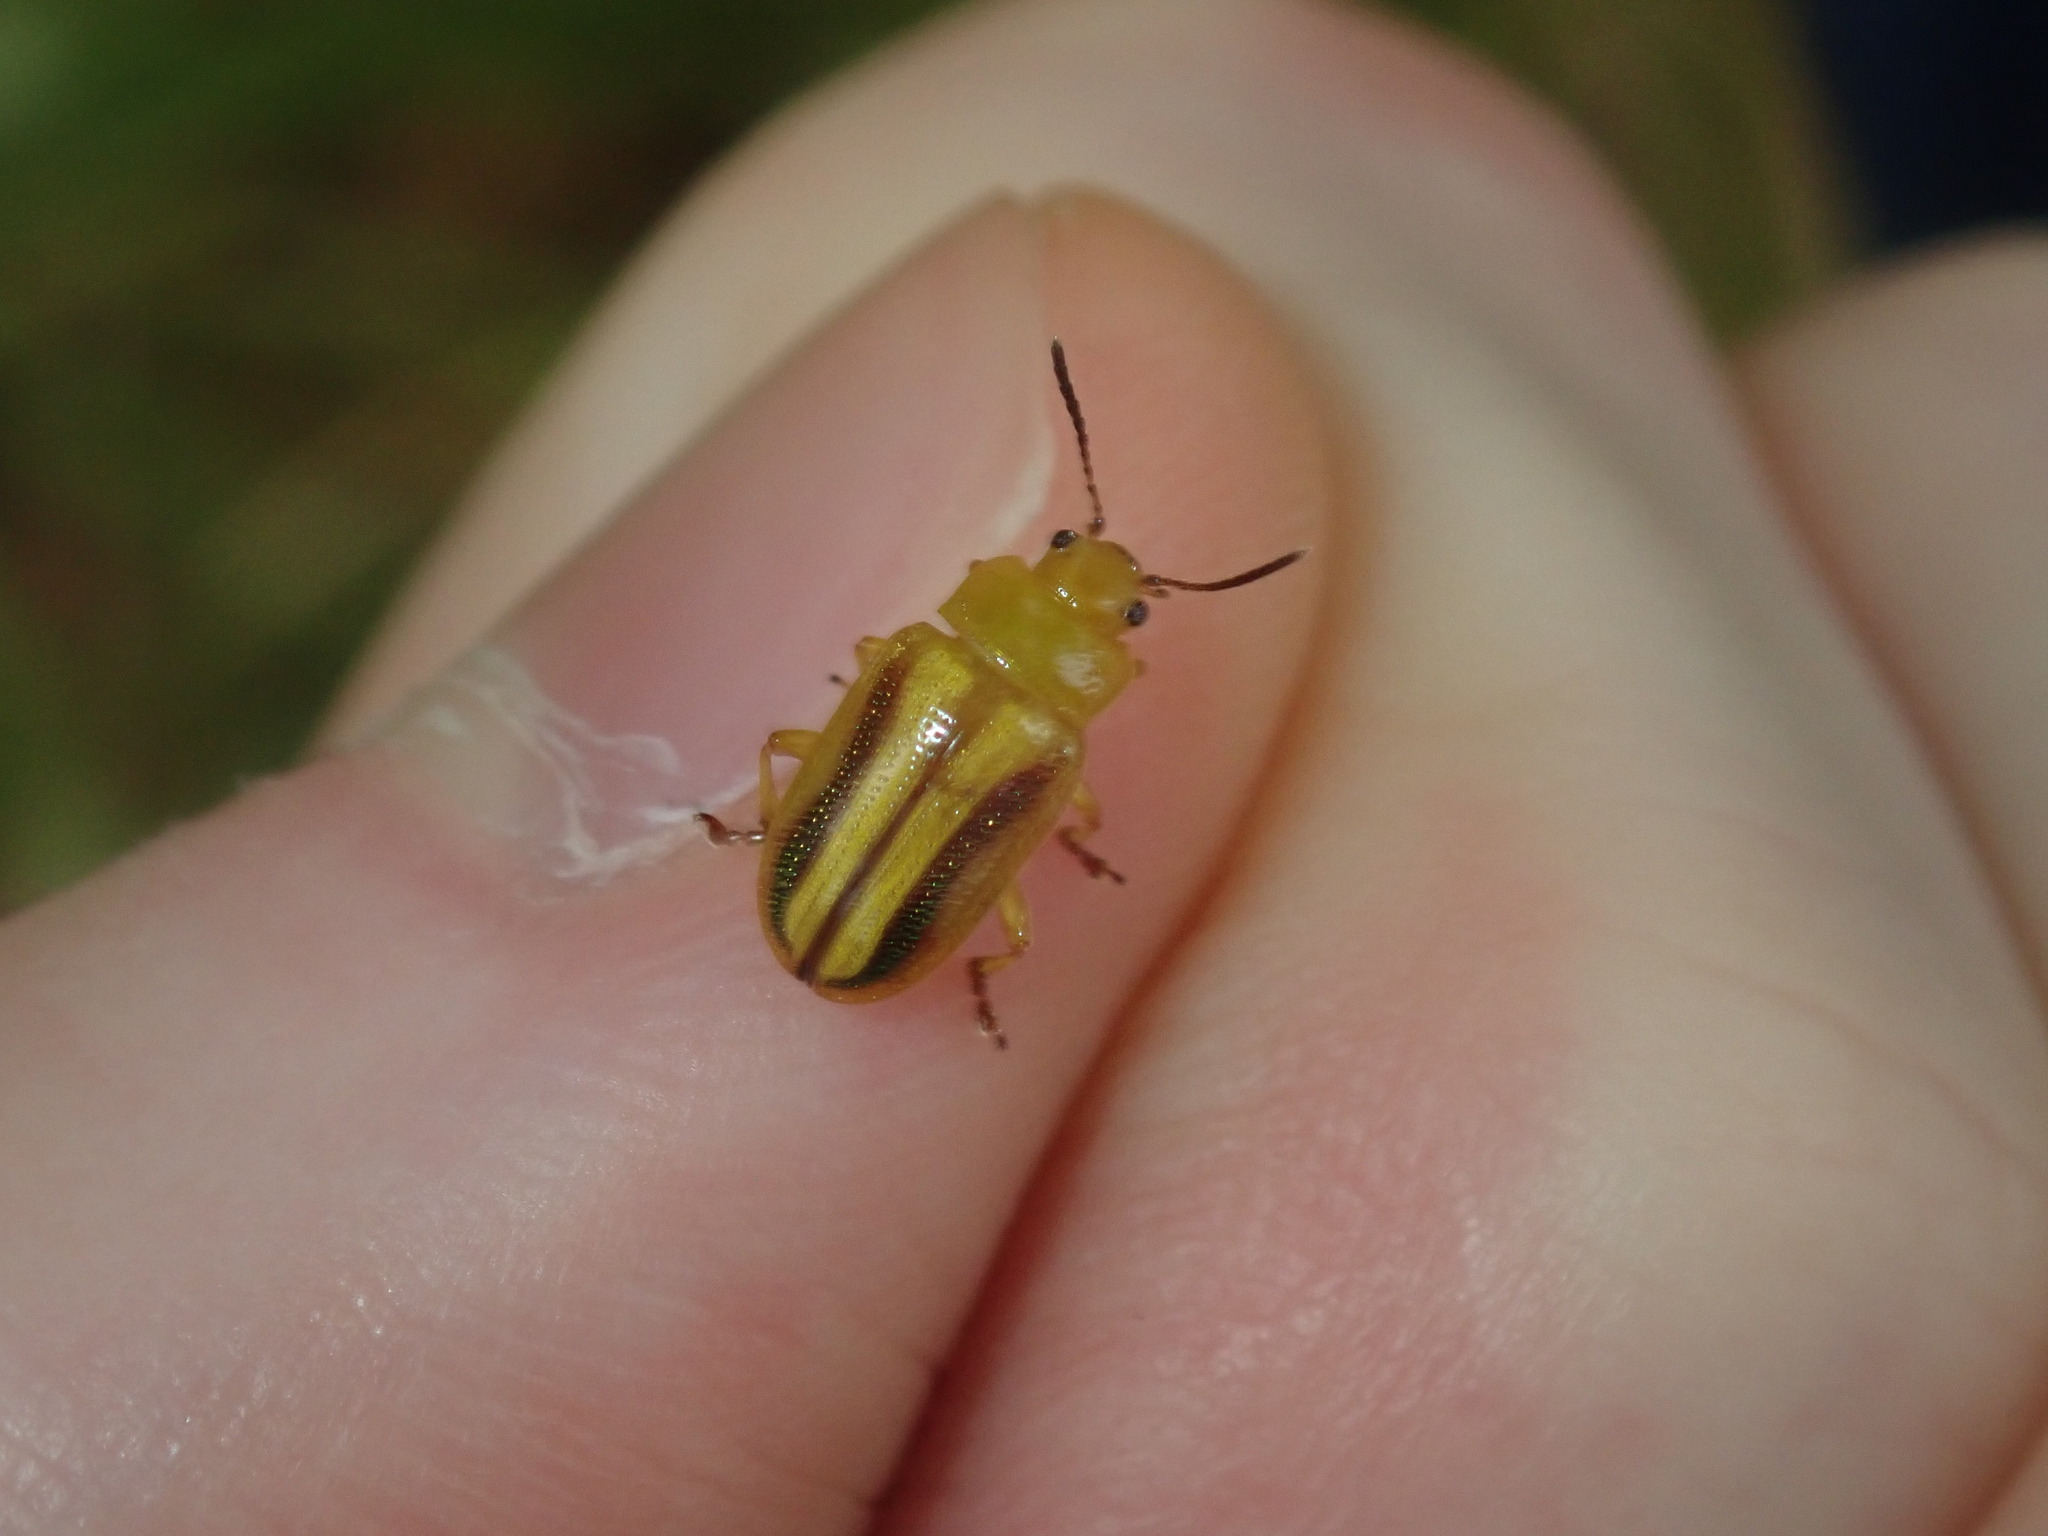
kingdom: Animalia
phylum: Arthropoda
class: Insecta
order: Coleoptera
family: Chrysomelidae
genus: Calomela
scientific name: Calomela
